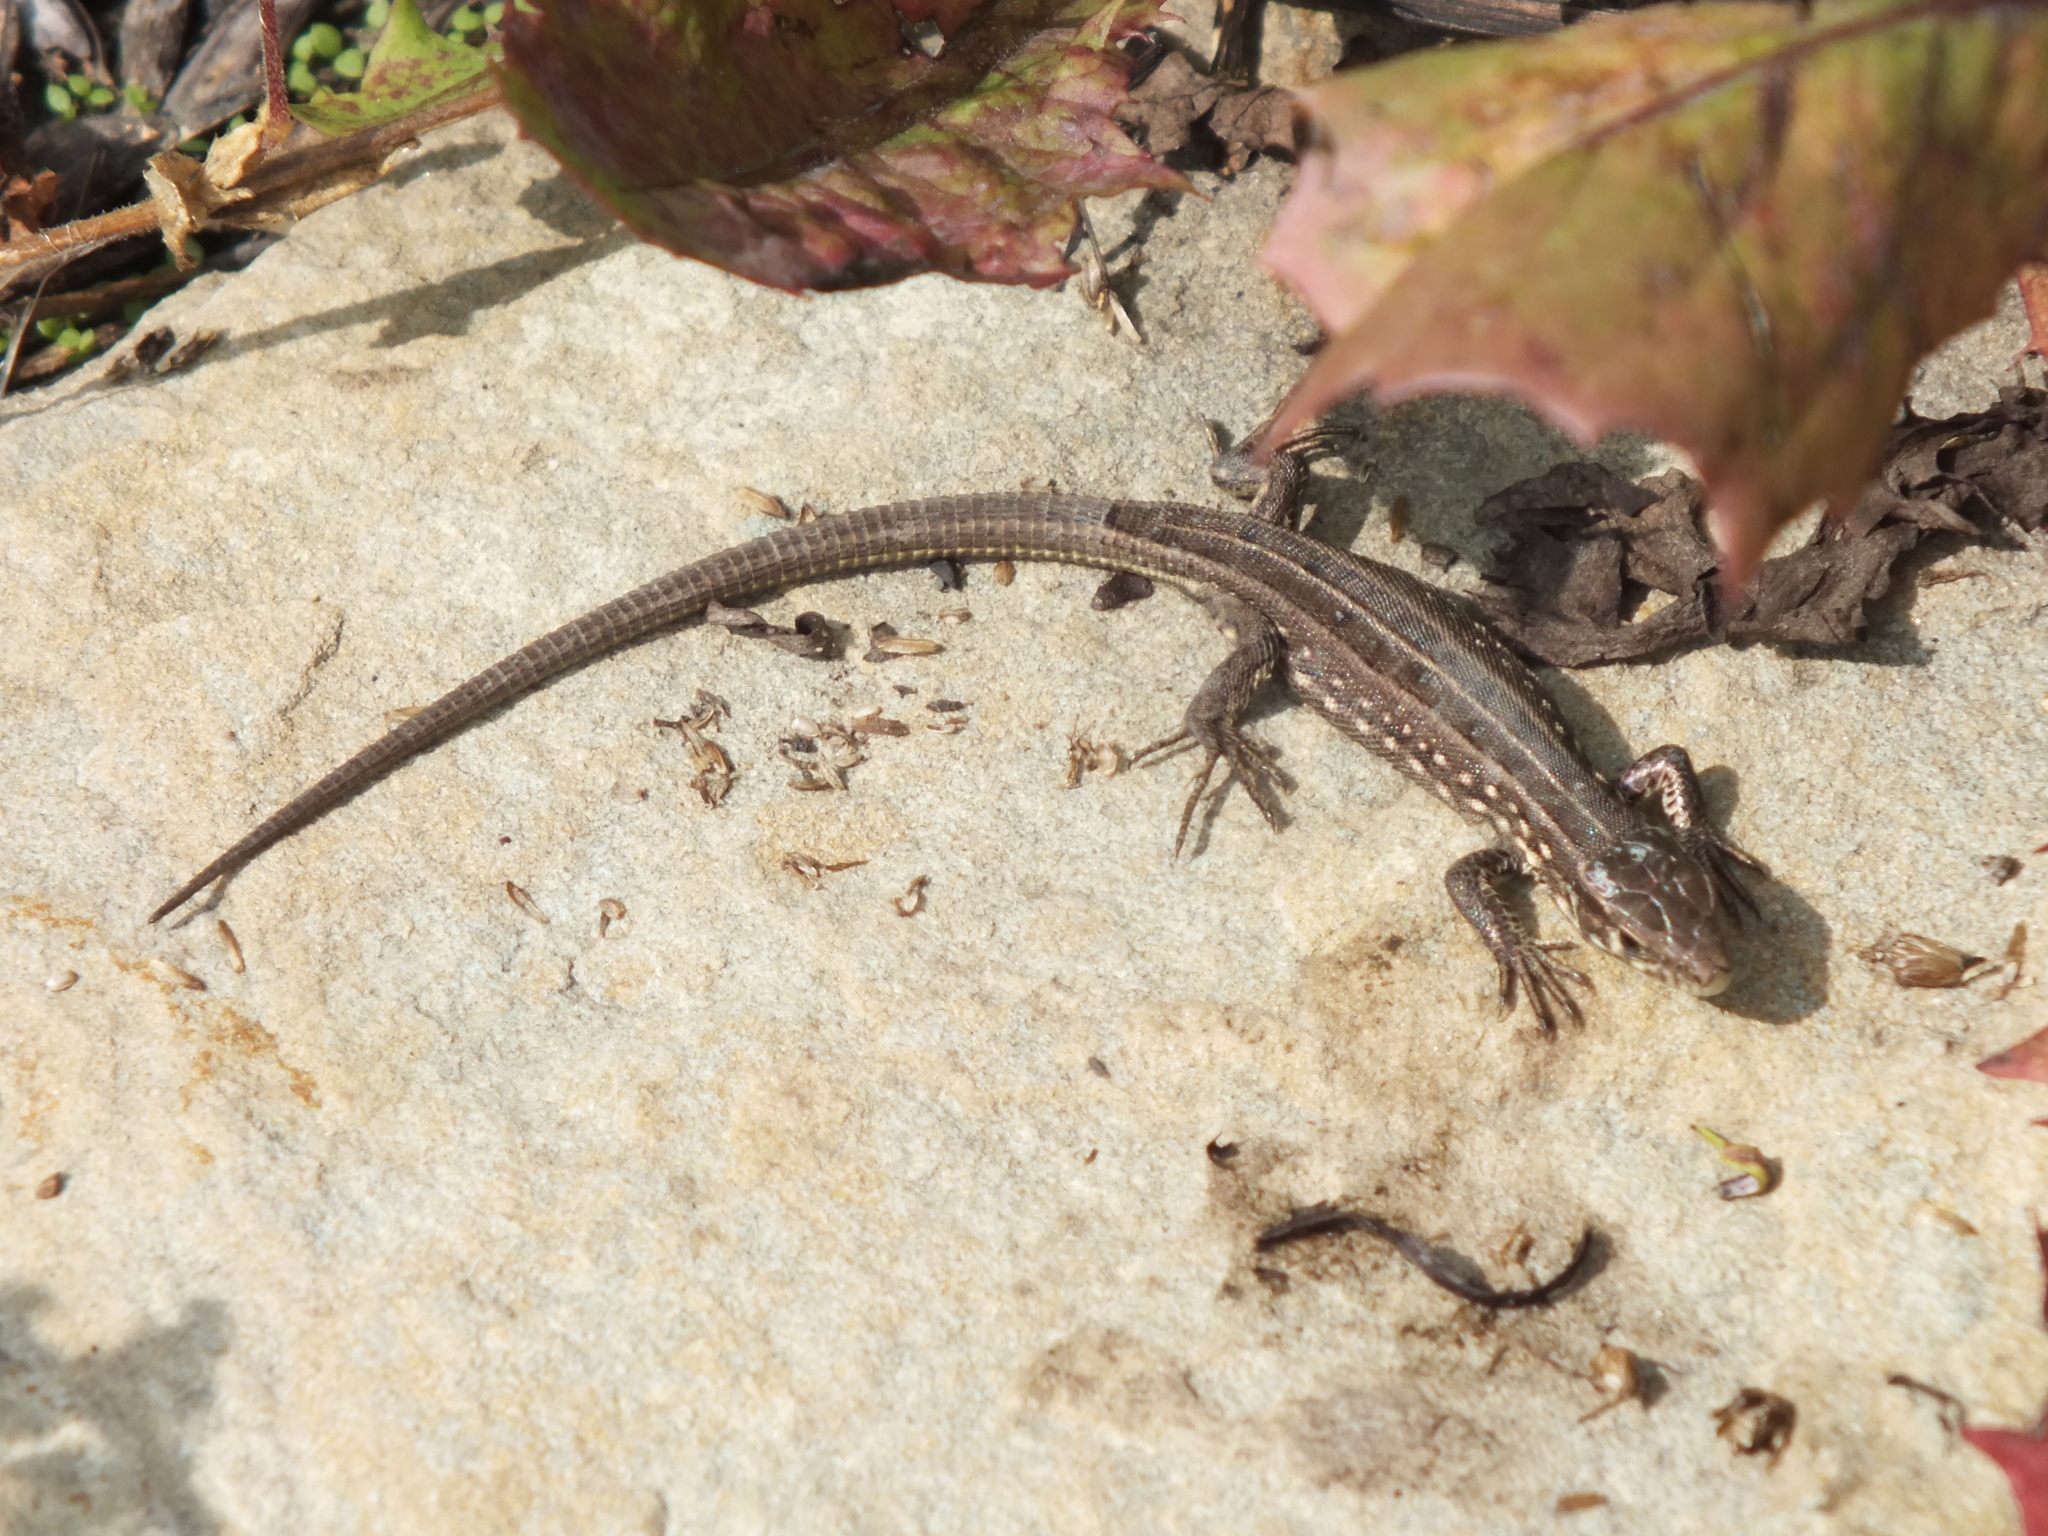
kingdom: Animalia
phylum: Chordata
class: Squamata
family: Lacertidae
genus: Lacerta
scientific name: Lacerta agilis
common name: Sand lizard
